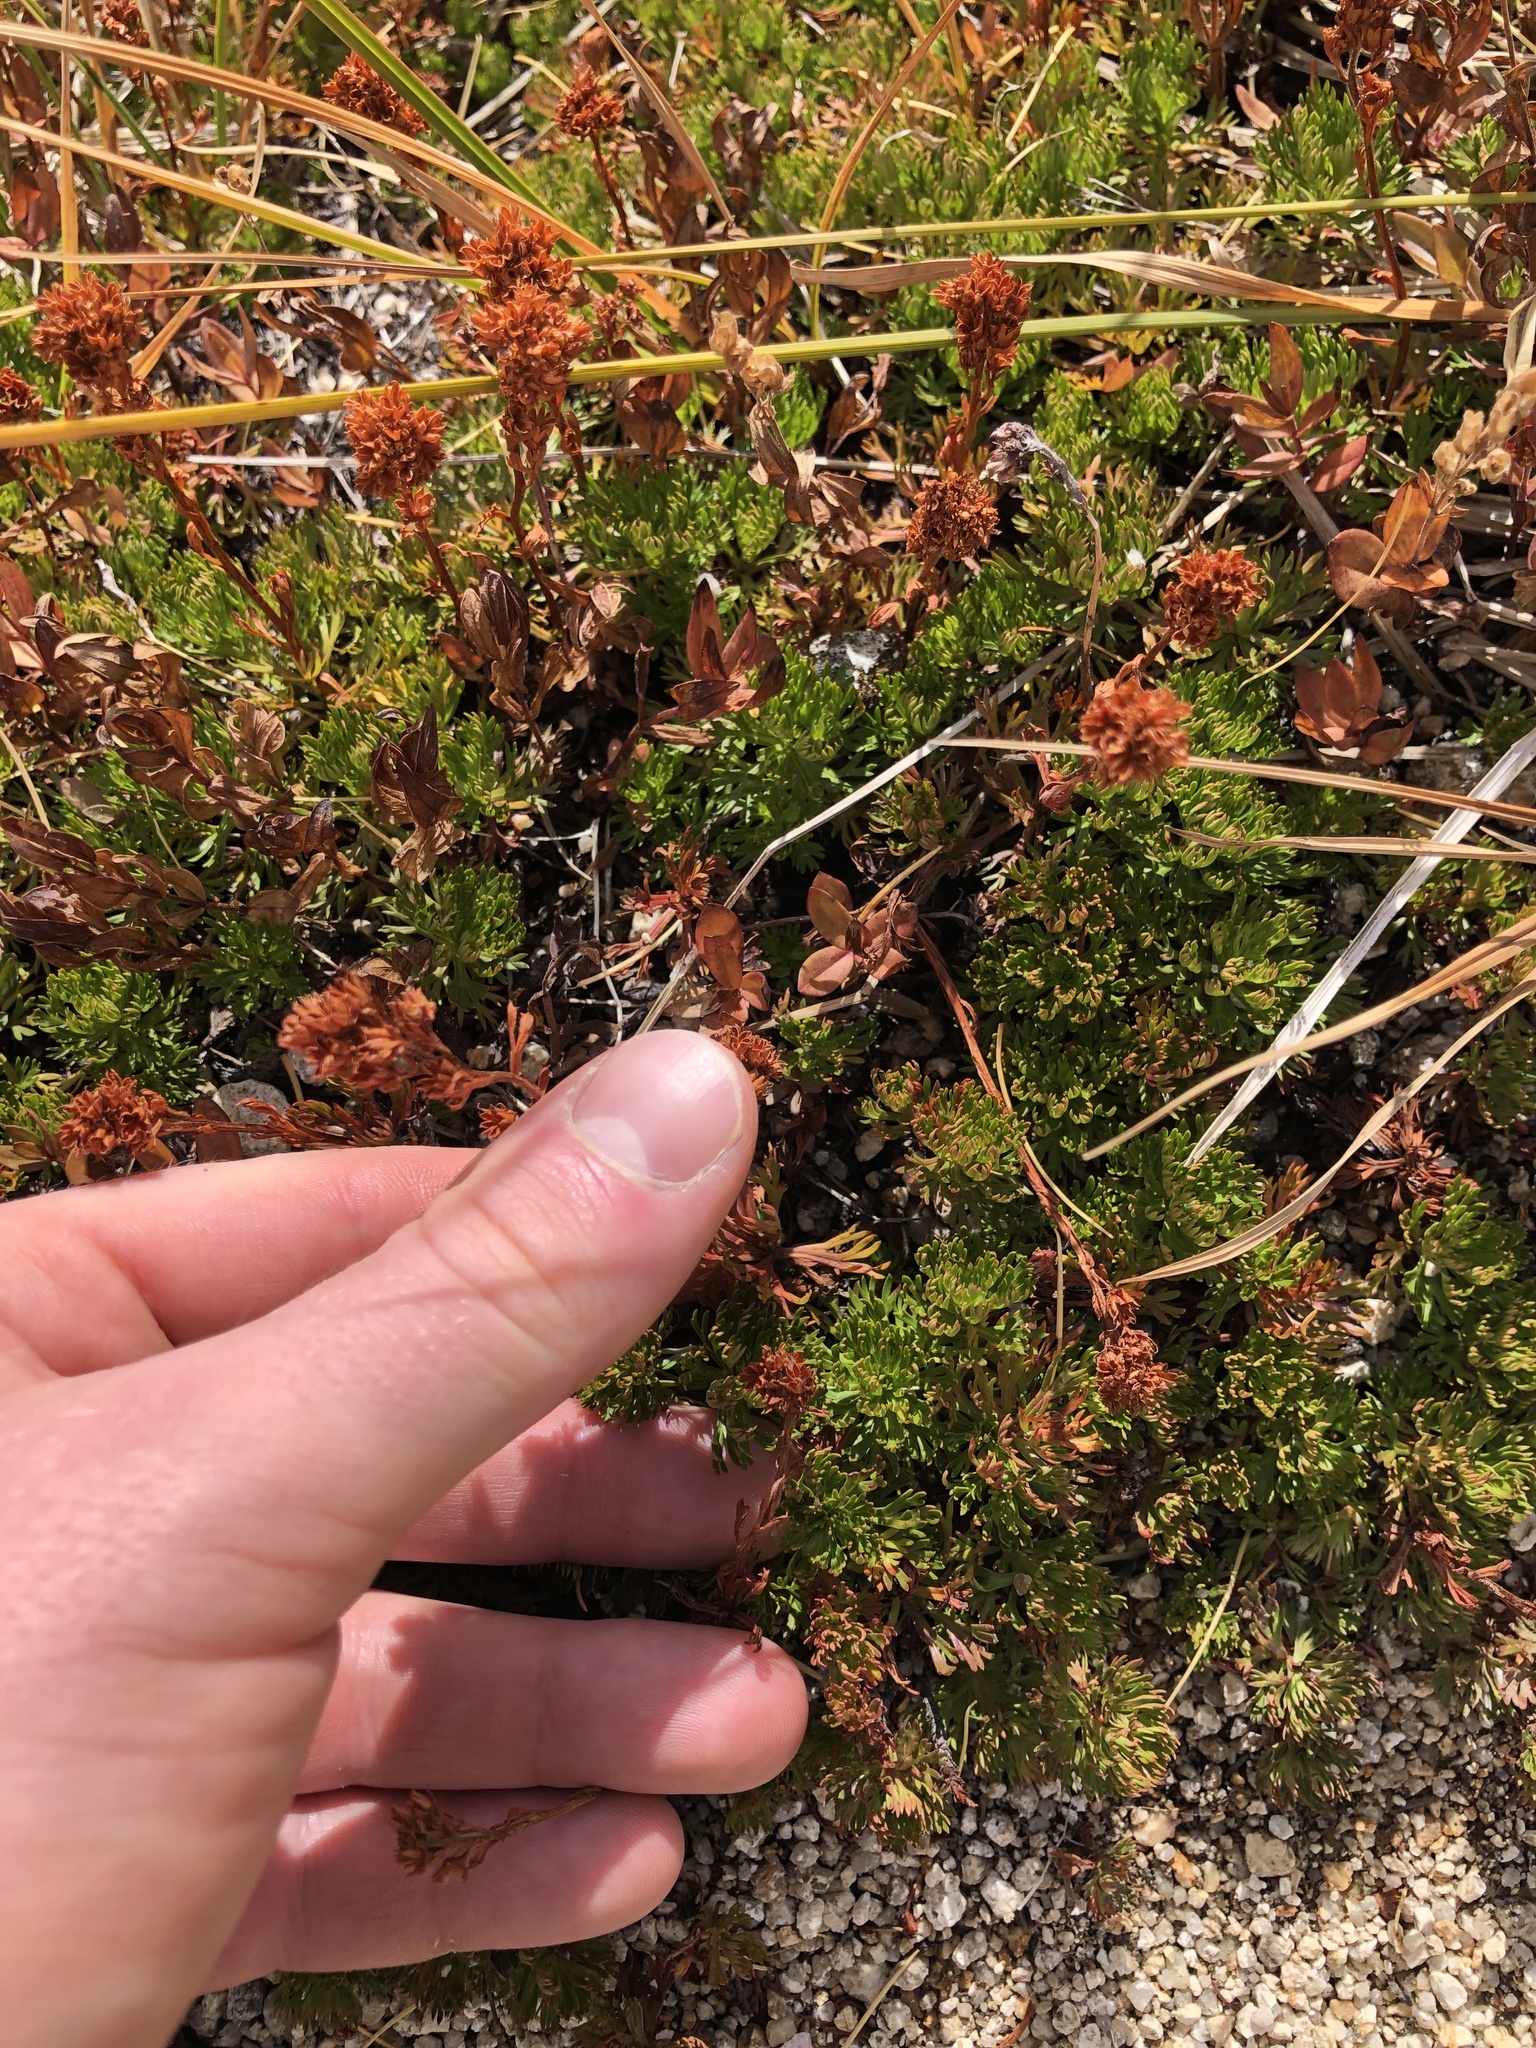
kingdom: Plantae
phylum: Tracheophyta
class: Magnoliopsida
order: Rosales
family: Rosaceae
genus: Luetkea
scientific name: Luetkea pectinata
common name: Partridgefoot
